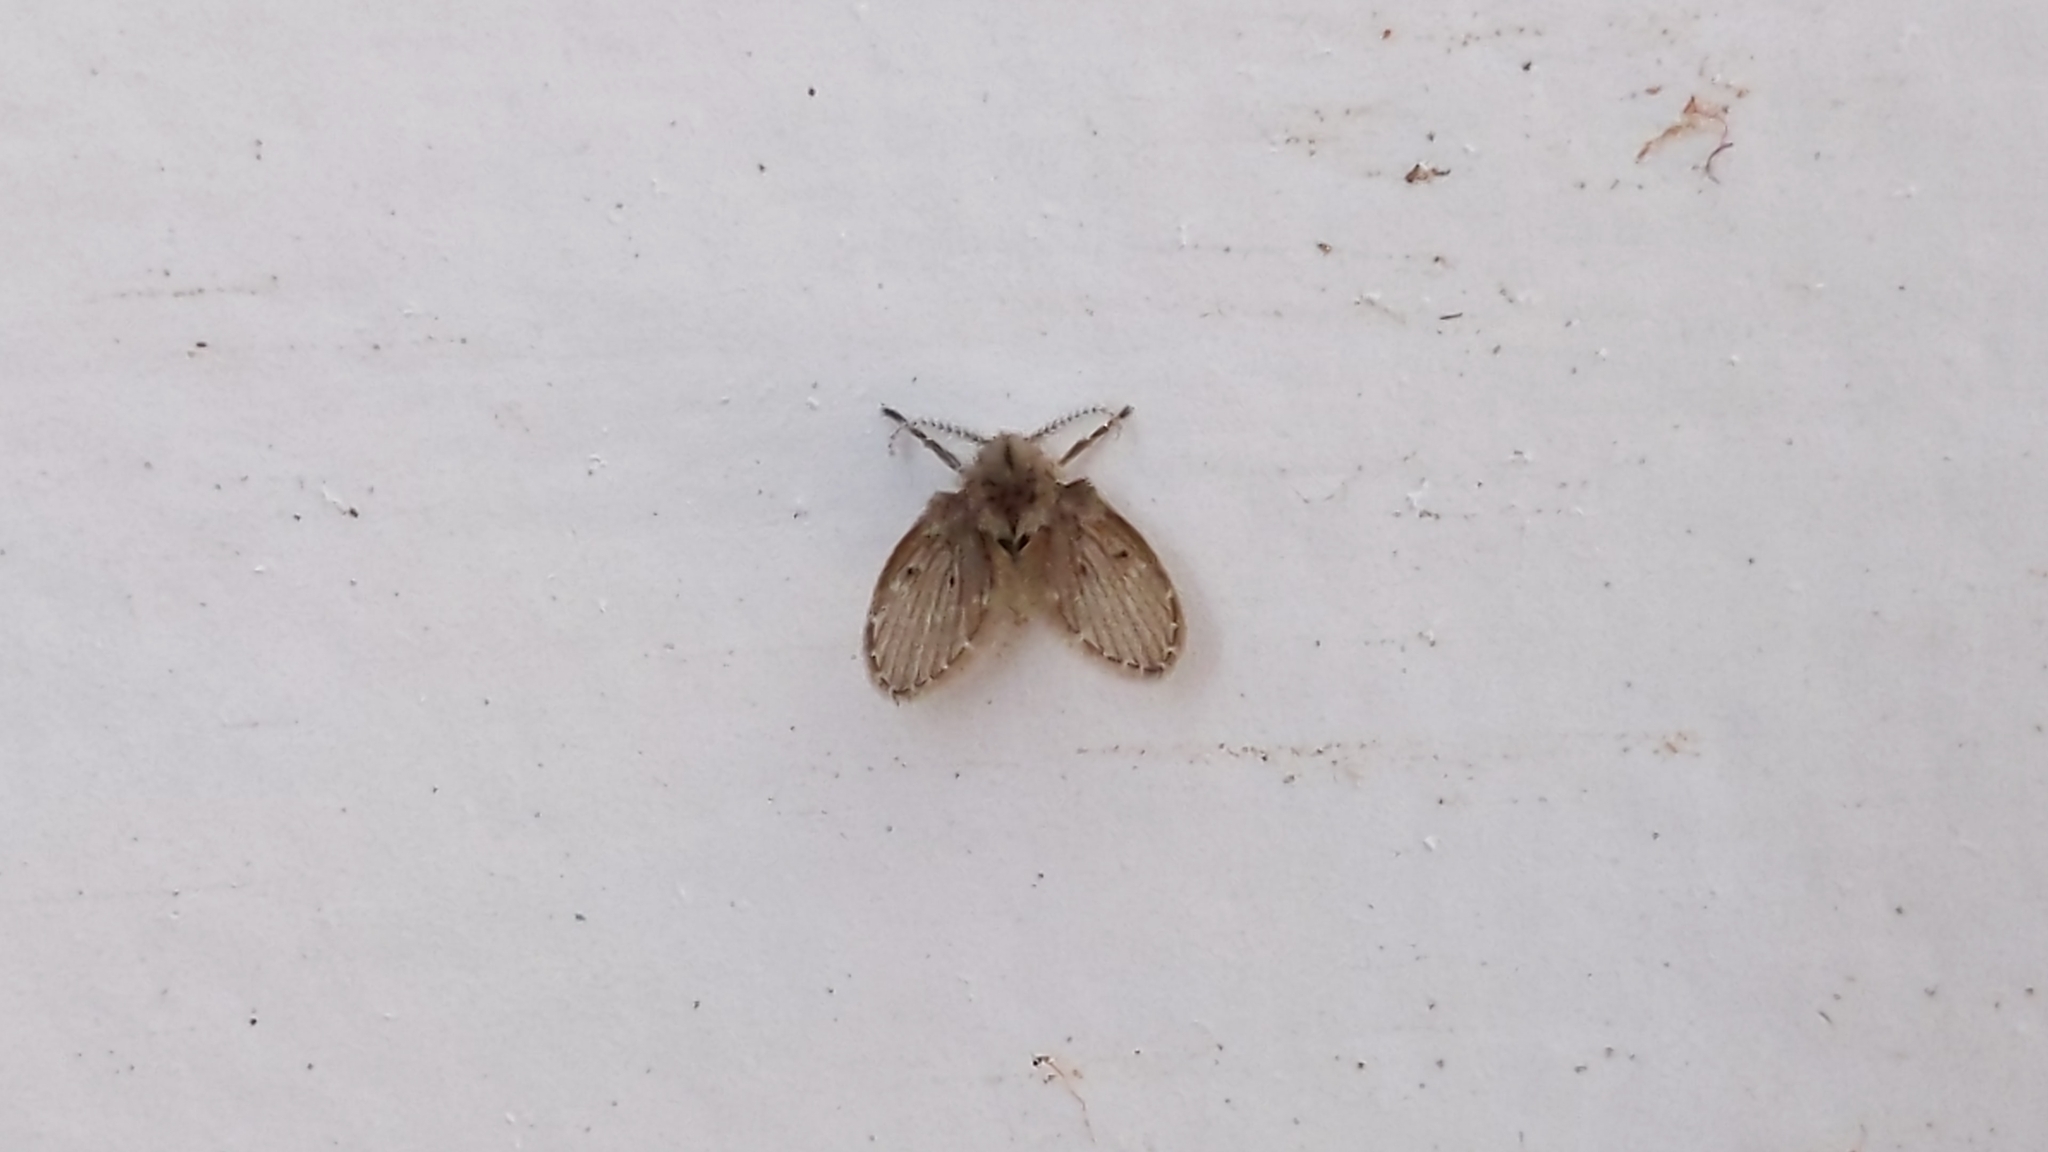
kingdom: Animalia
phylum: Arthropoda
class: Insecta
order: Diptera
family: Psychodidae
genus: Clogmia
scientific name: Clogmia albipunctatus
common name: White-spotted moth fly
